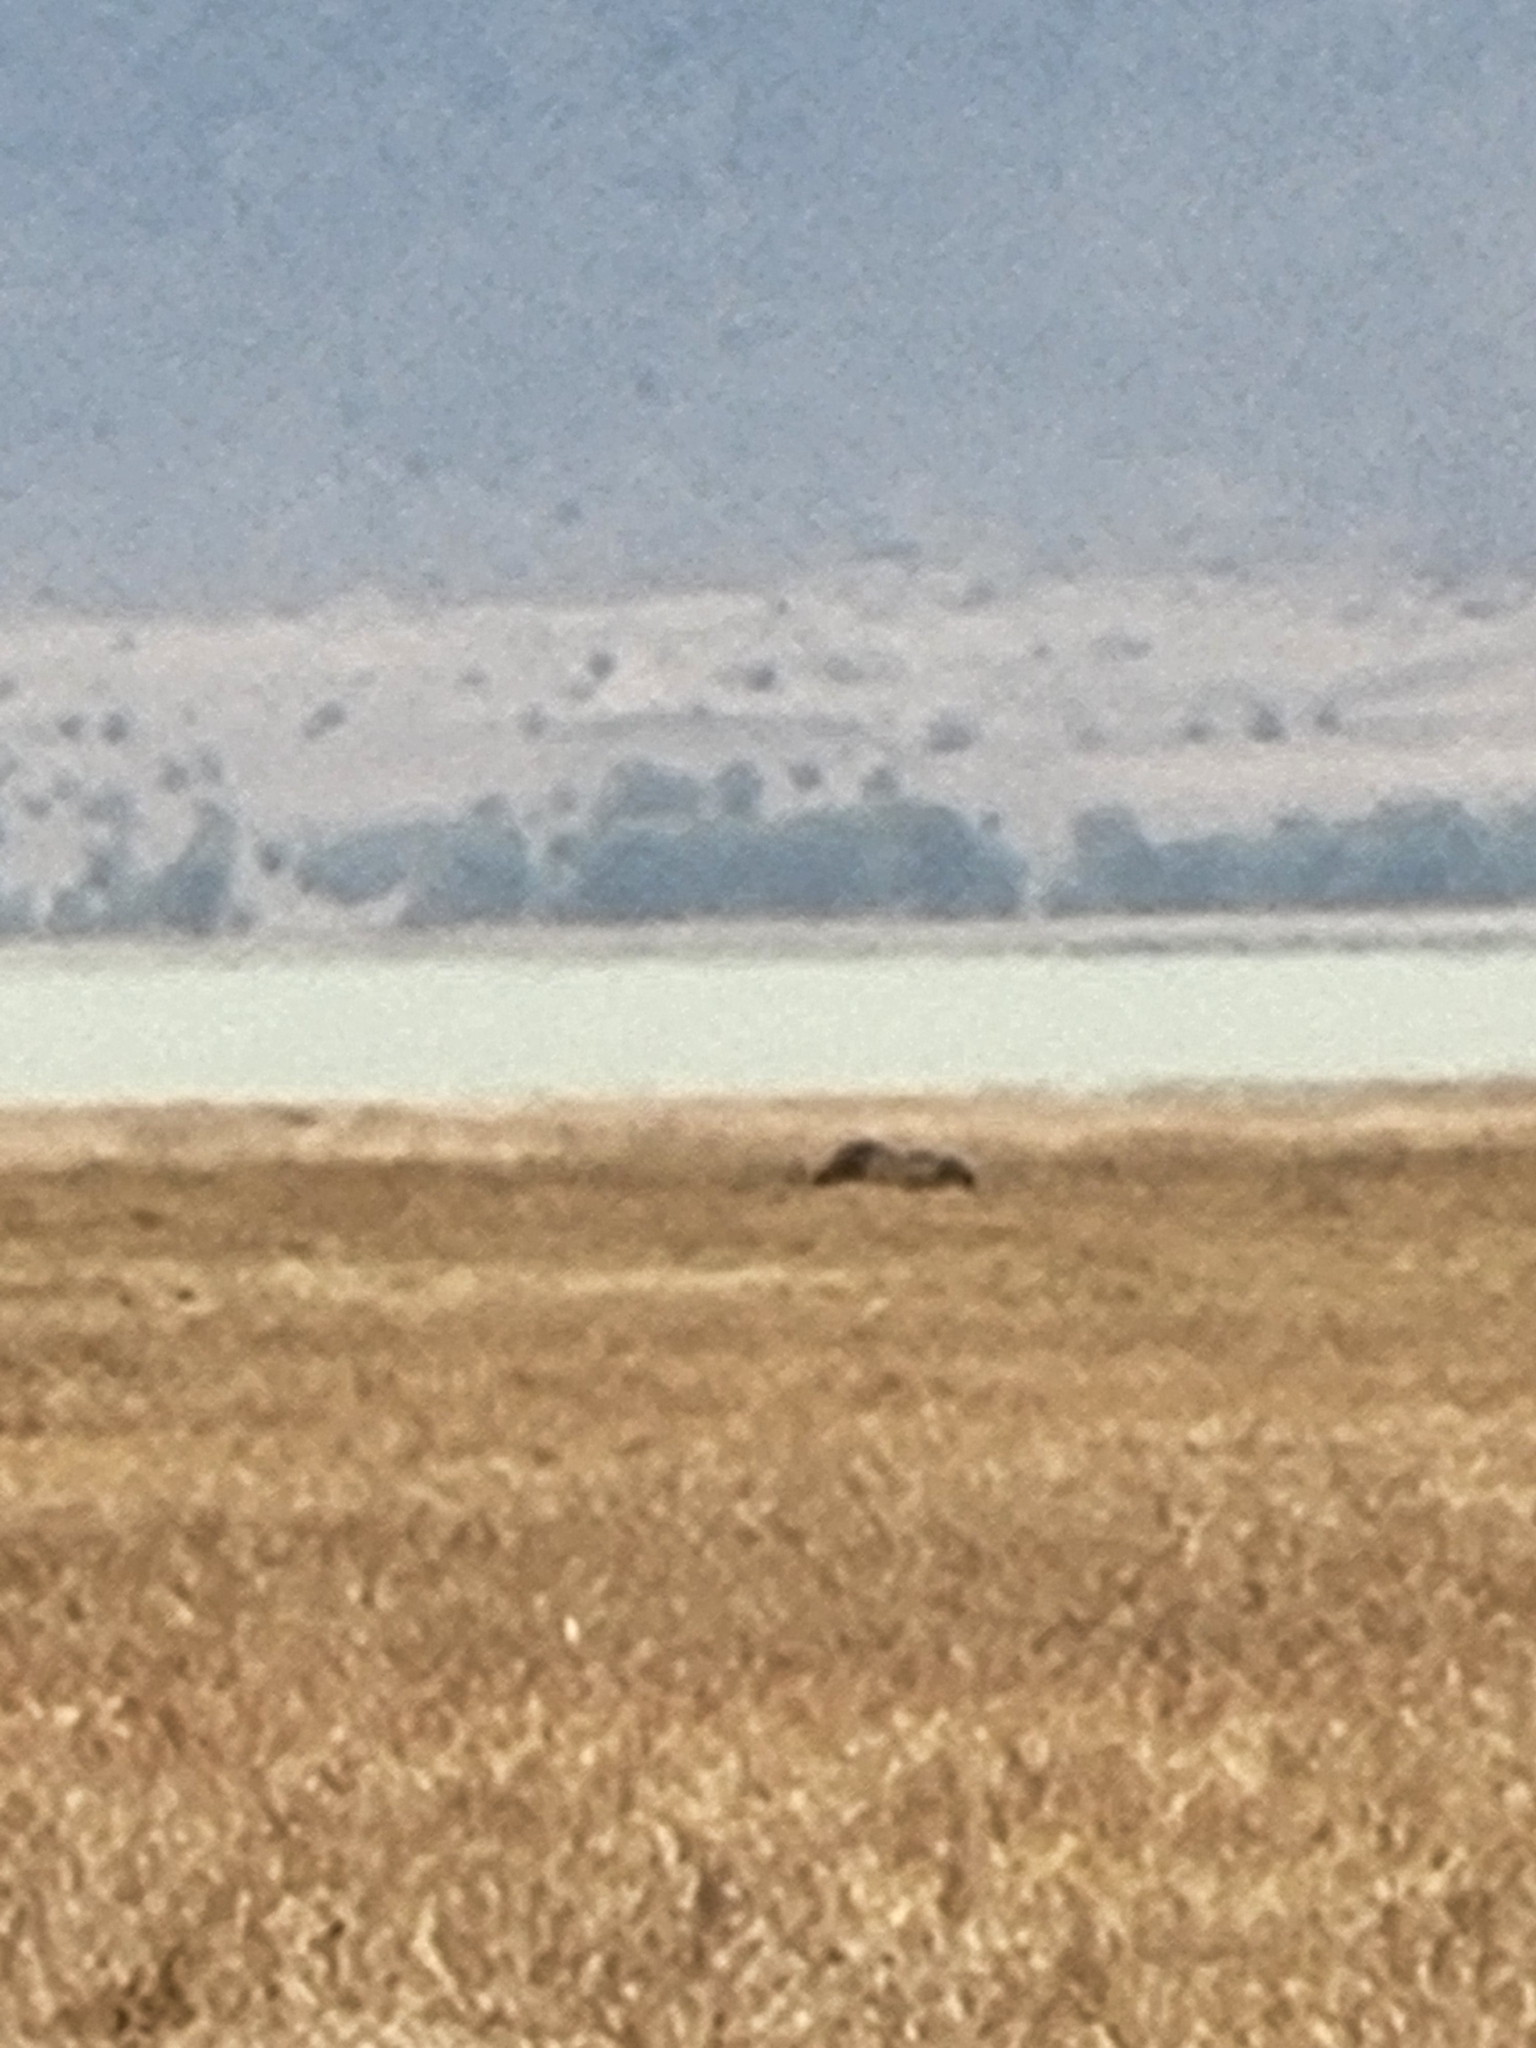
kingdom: Animalia
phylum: Chordata
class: Mammalia
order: Perissodactyla
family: Rhinocerotidae
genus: Diceros
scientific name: Diceros bicornis
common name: Black rhinoceros
